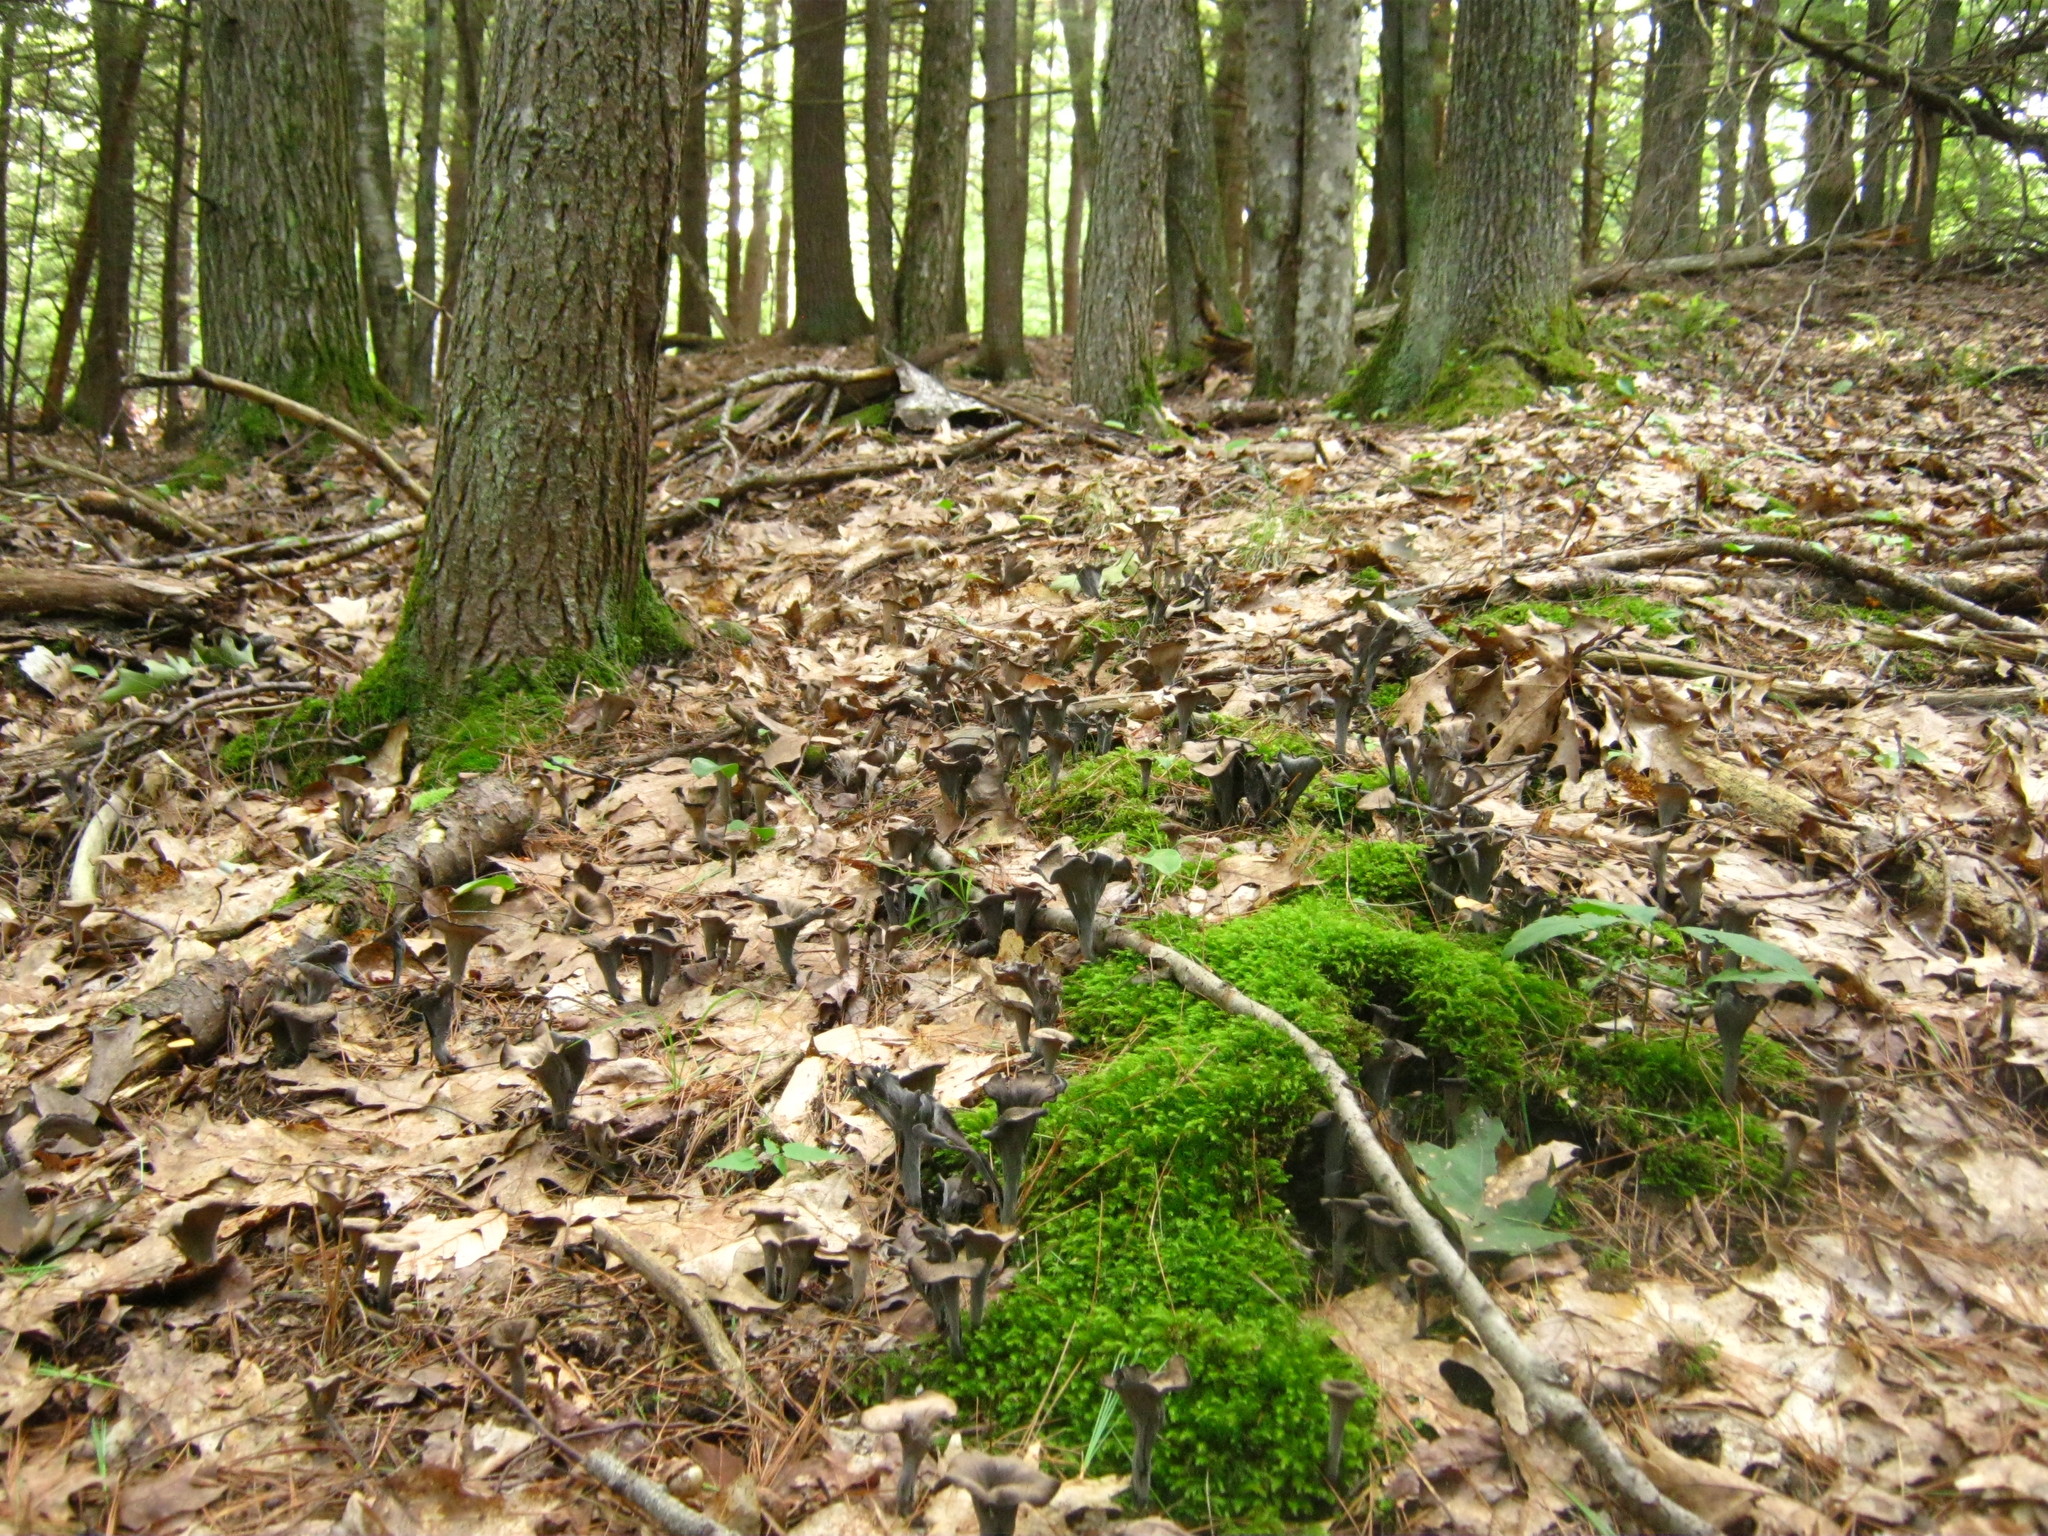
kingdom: Fungi
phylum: Basidiomycota
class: Agaricomycetes
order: Cantharellales
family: Hydnaceae
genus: Craterellus
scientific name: Craterellus cornucopioides
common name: Horn of plenty
